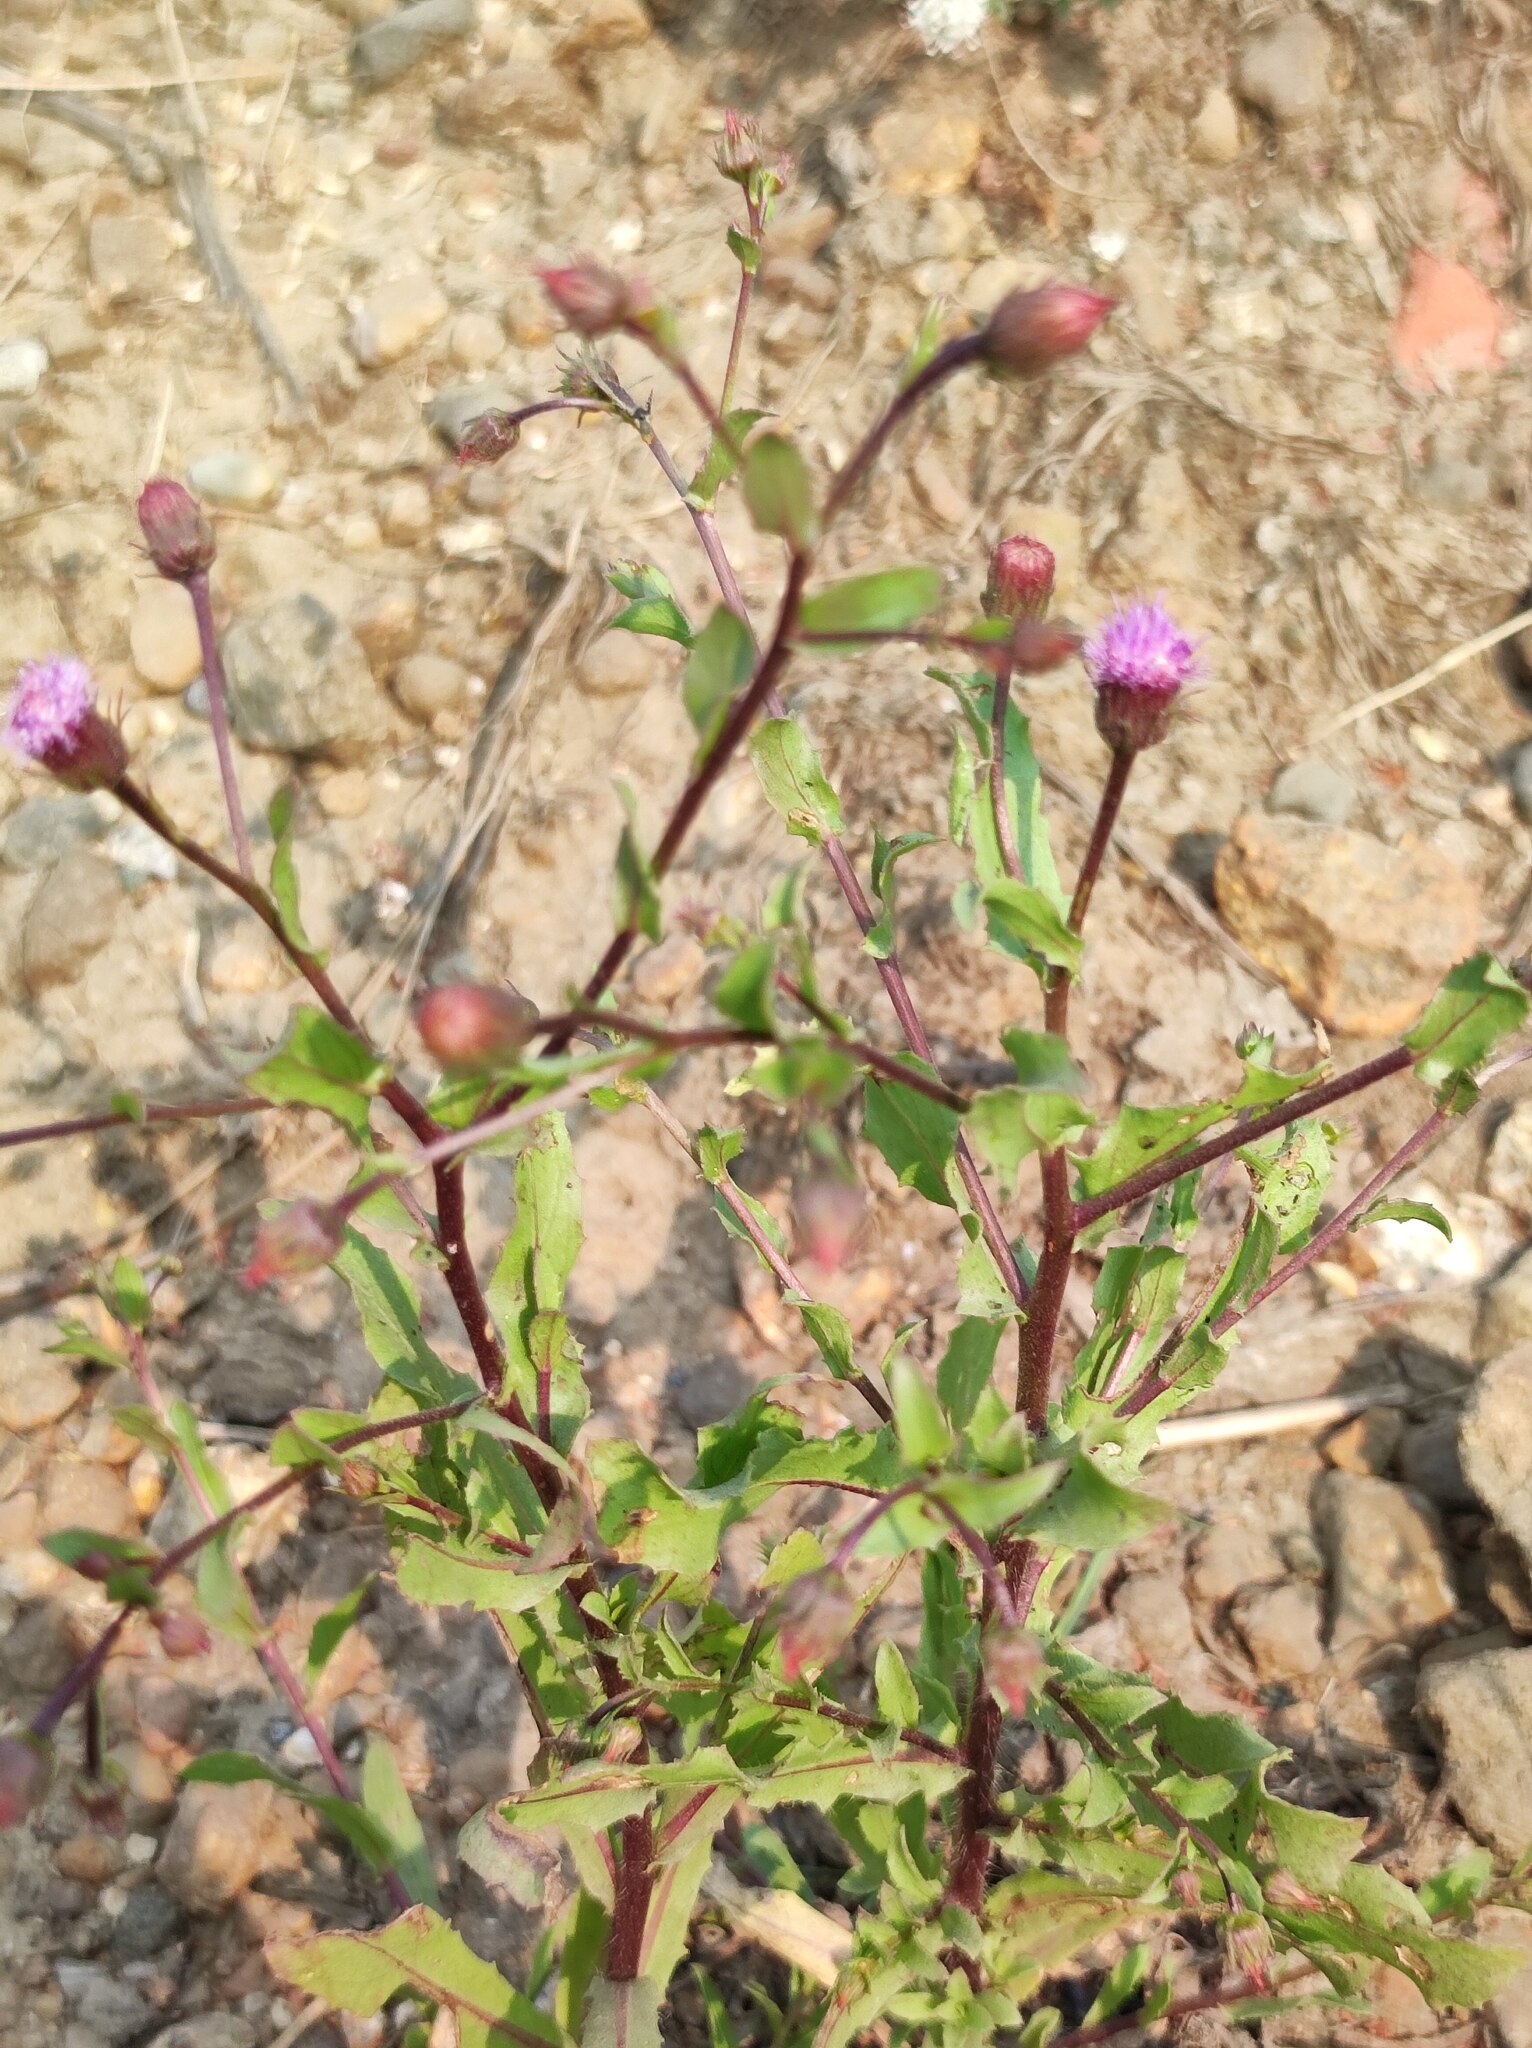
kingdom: Plantae
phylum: Tracheophyta
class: Magnoliopsida
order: Asterales
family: Asteraceae
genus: Blumea
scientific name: Blumea obliqua
